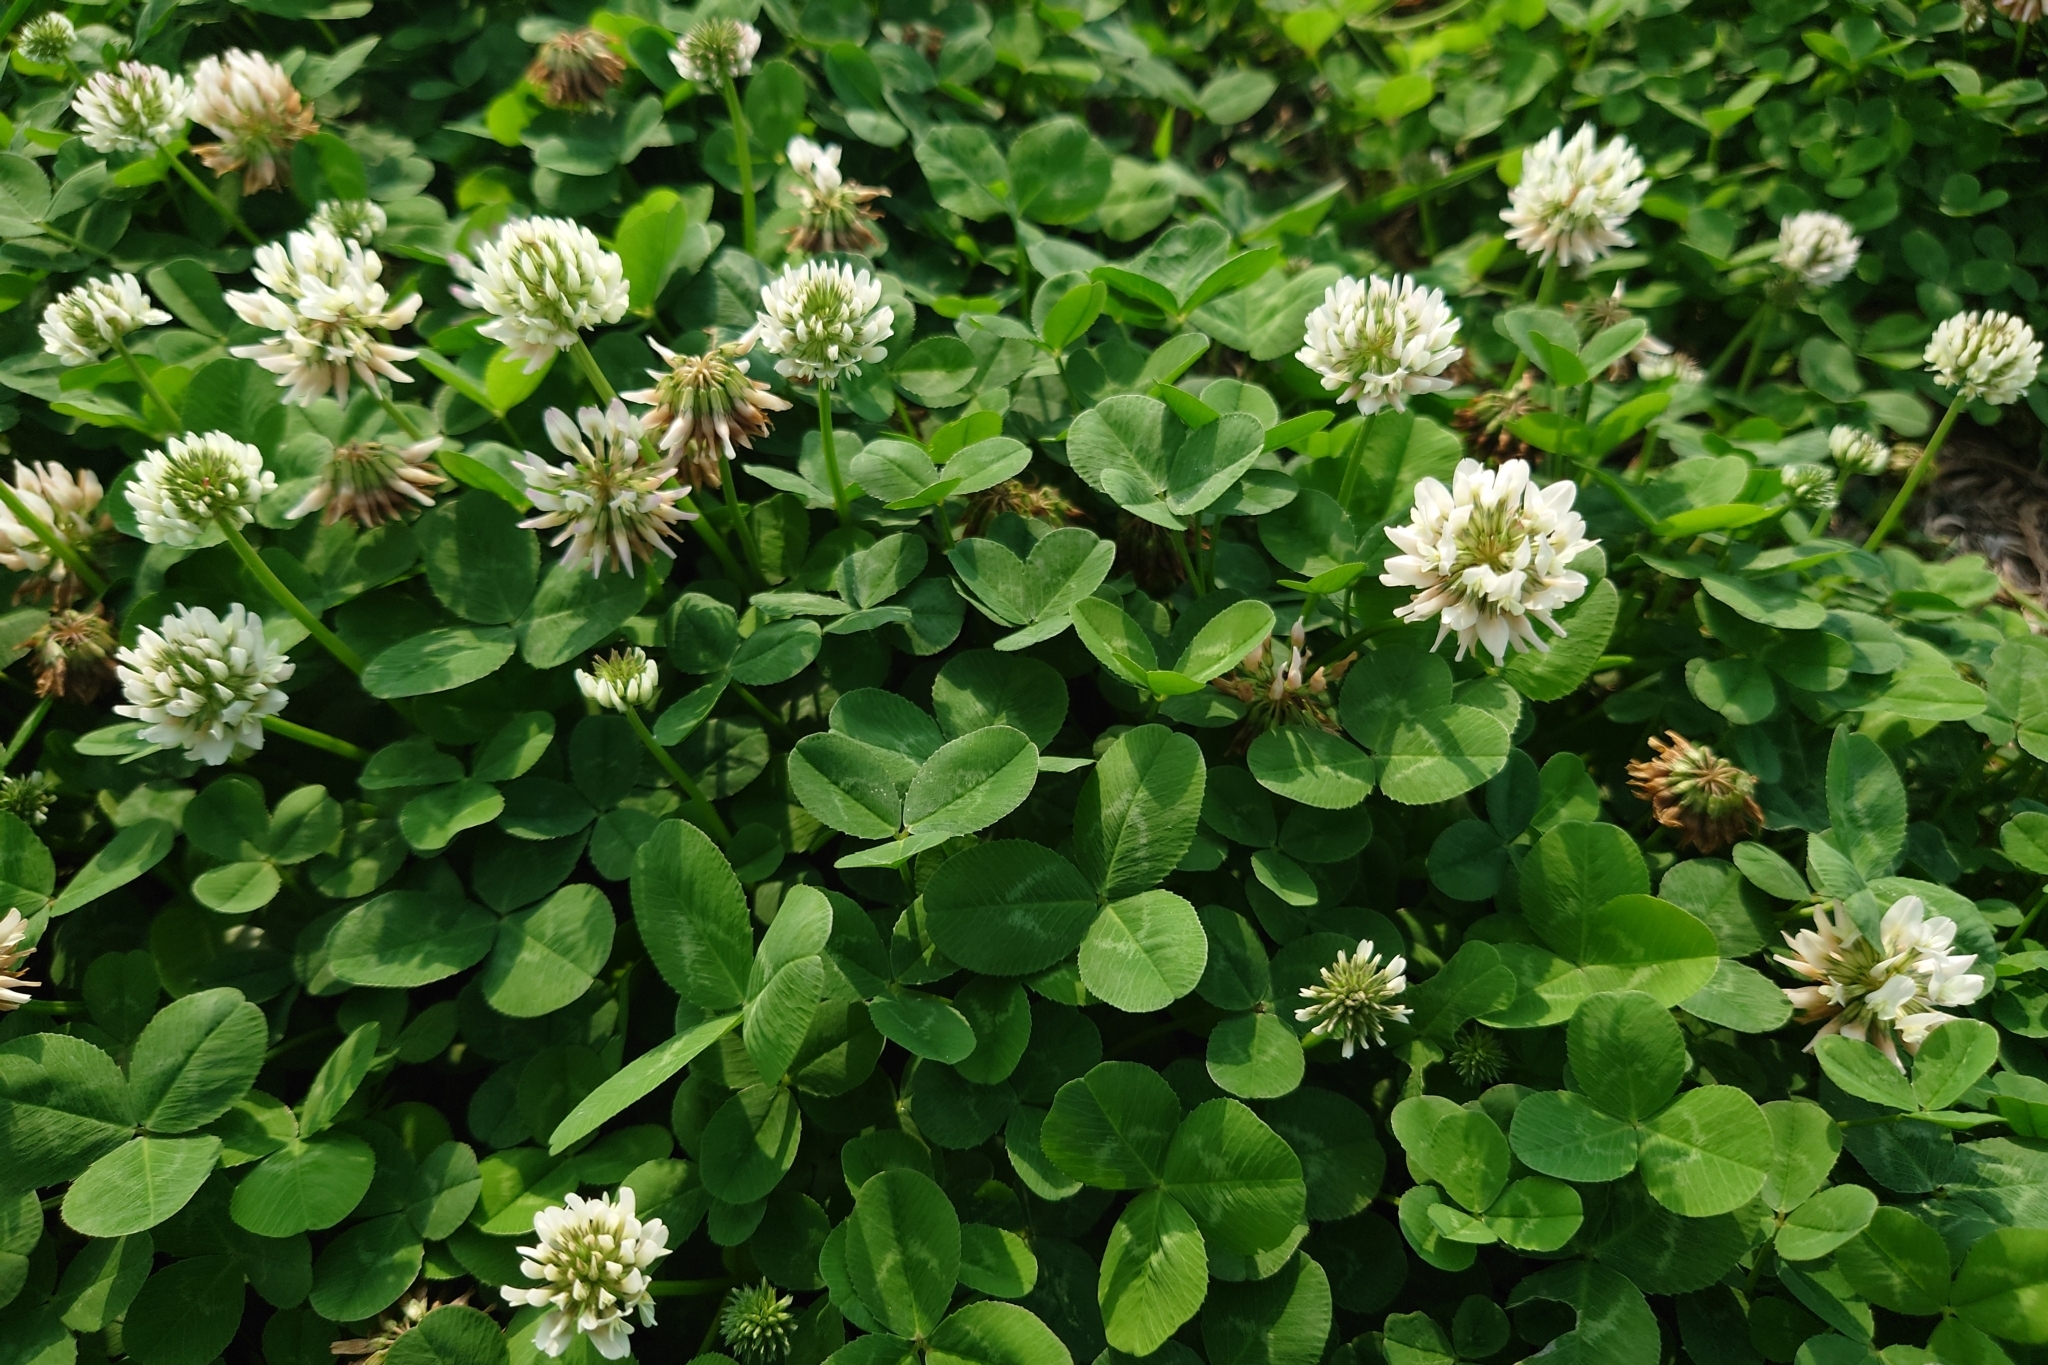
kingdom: Plantae
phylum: Tracheophyta
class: Magnoliopsida
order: Fabales
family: Fabaceae
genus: Trifolium
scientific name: Trifolium repens
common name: White clover
